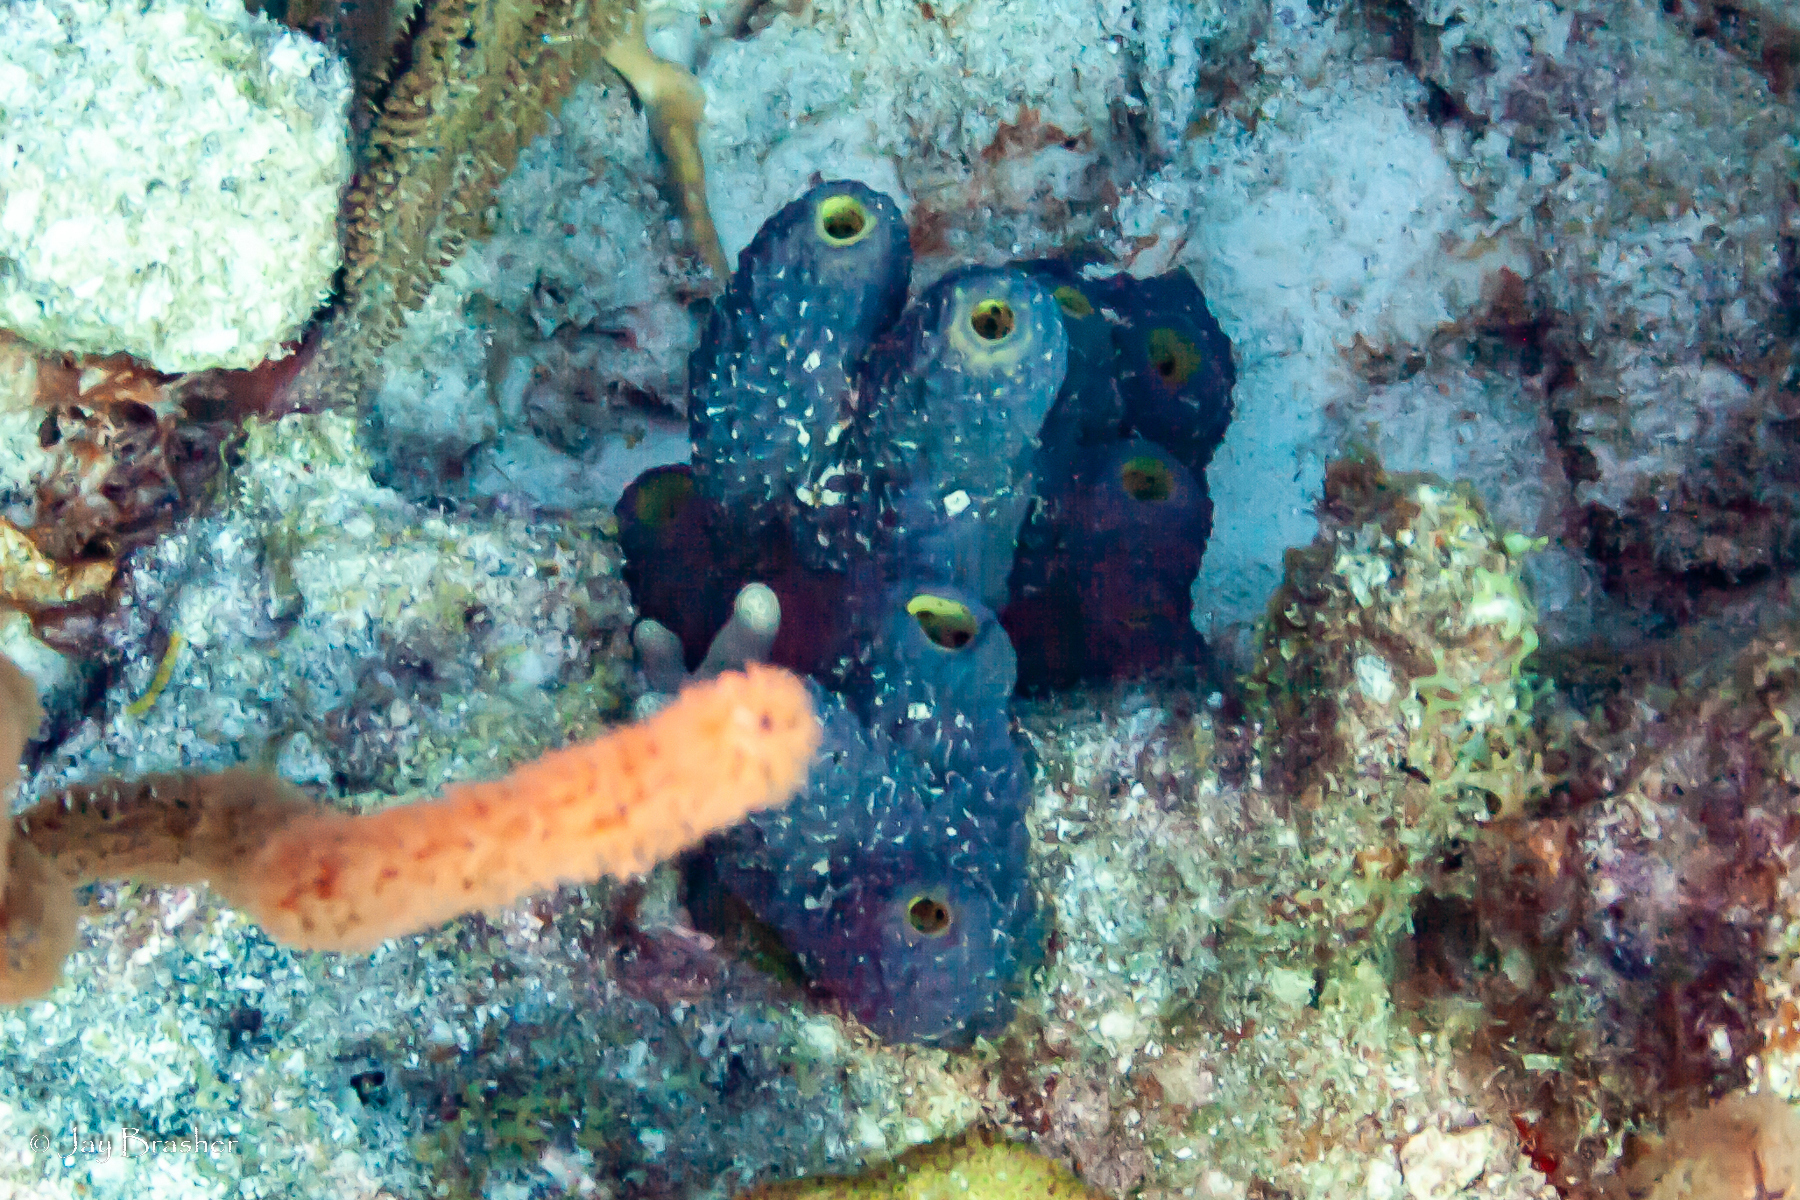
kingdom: Animalia
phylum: Porifera
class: Demospongiae
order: Verongiida
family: Aplysinidae
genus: Aiolochroia
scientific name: Aiolochroia crassa
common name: Branching tube sponge
